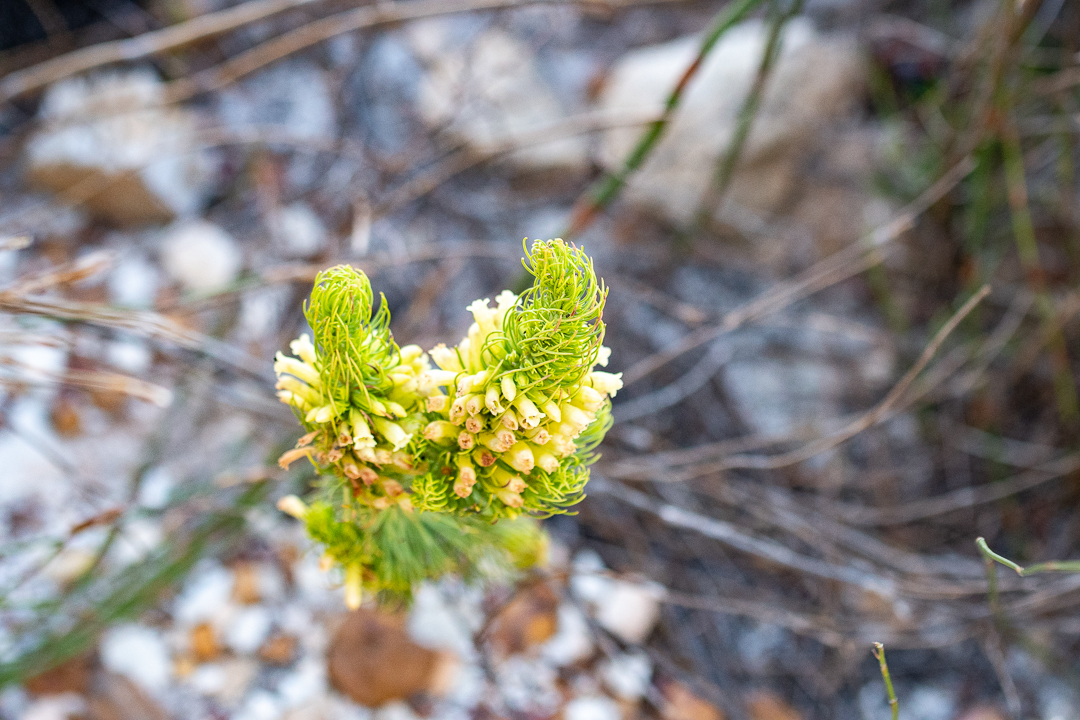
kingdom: Plantae
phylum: Tracheophyta
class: Magnoliopsida
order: Ericales
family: Ericaceae
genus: Erica
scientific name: Erica viscaria
